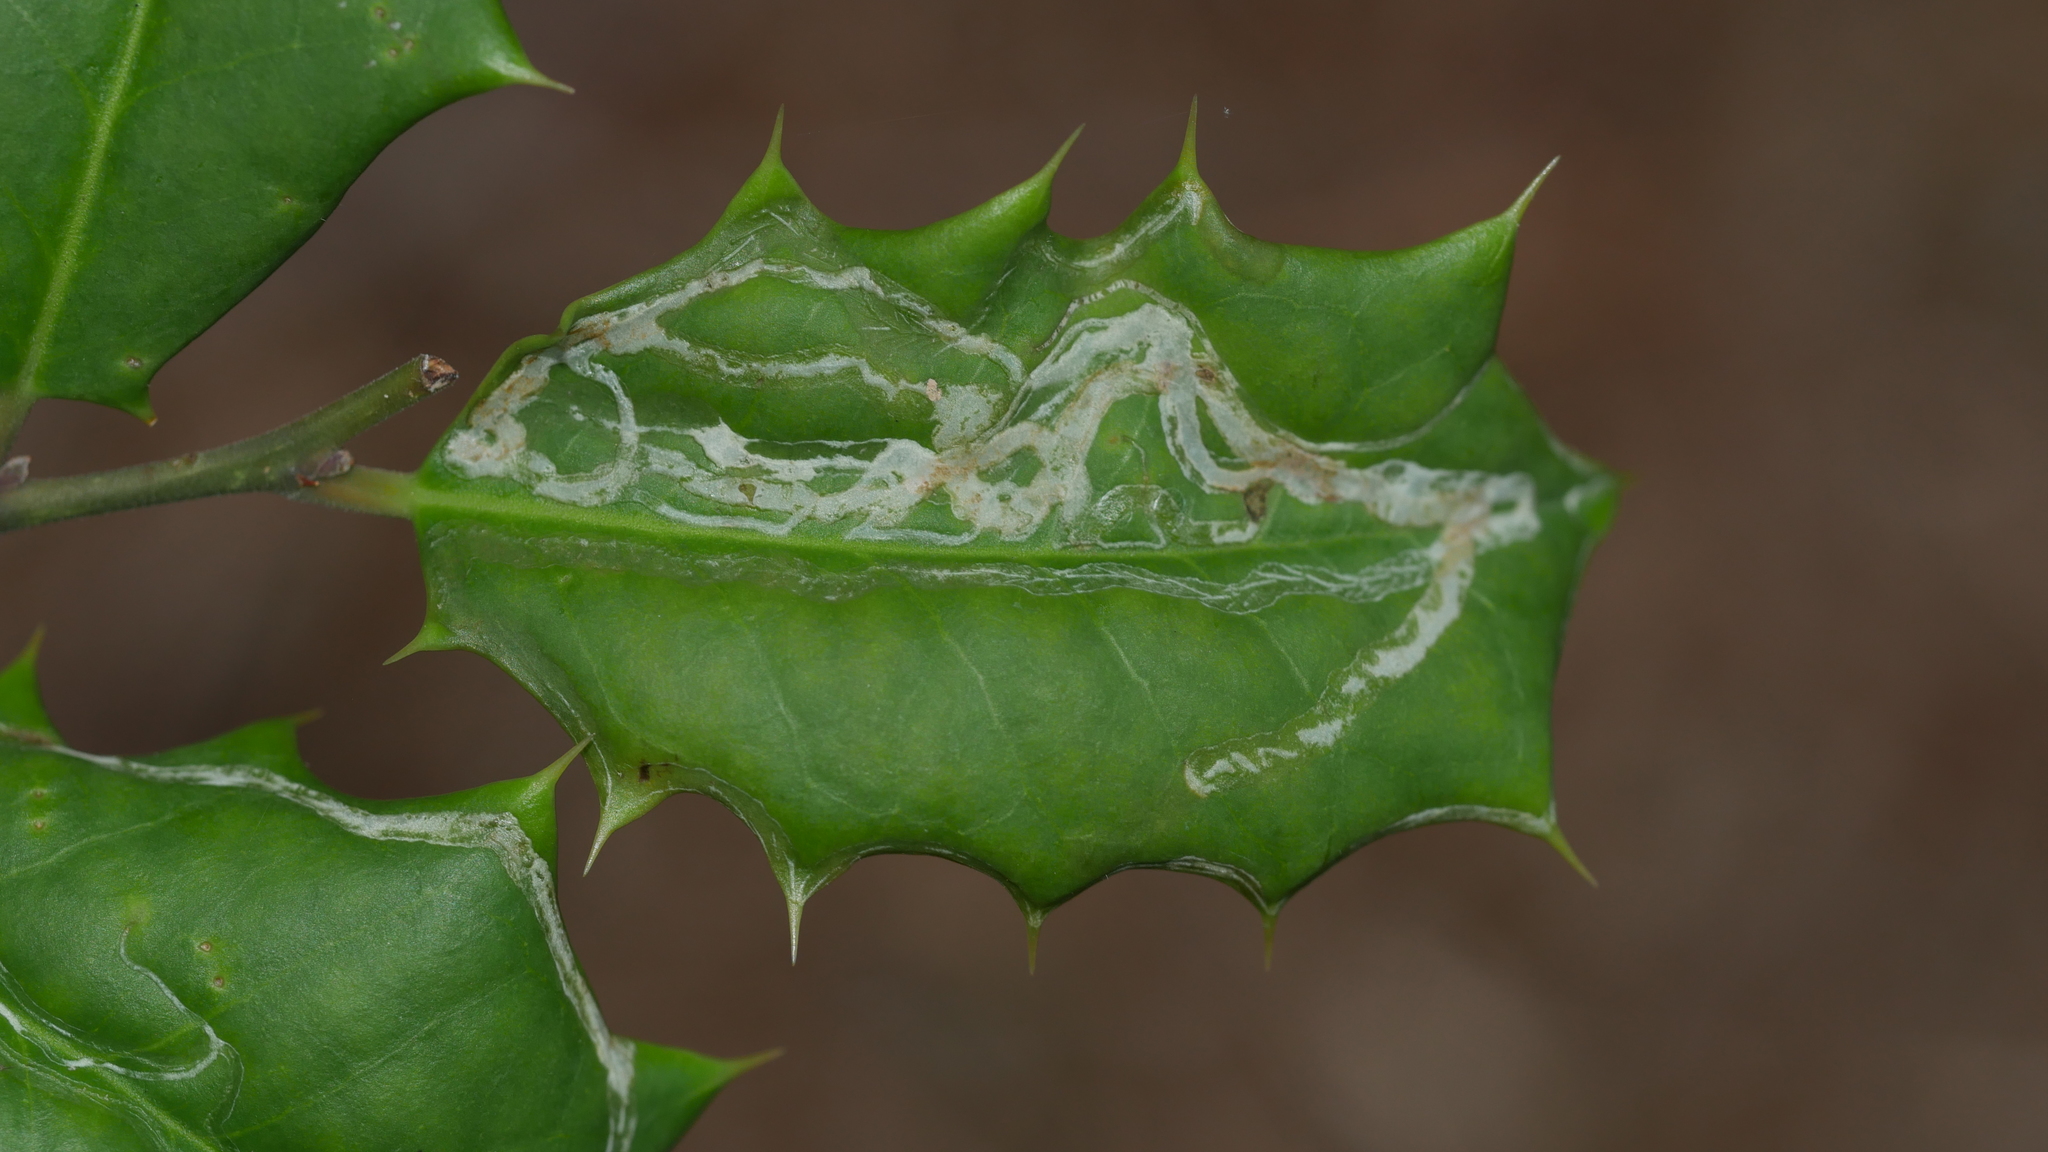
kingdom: Animalia
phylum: Arthropoda
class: Insecta
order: Diptera
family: Agromyzidae
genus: Phytomyza
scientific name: Phytomyza opacae
